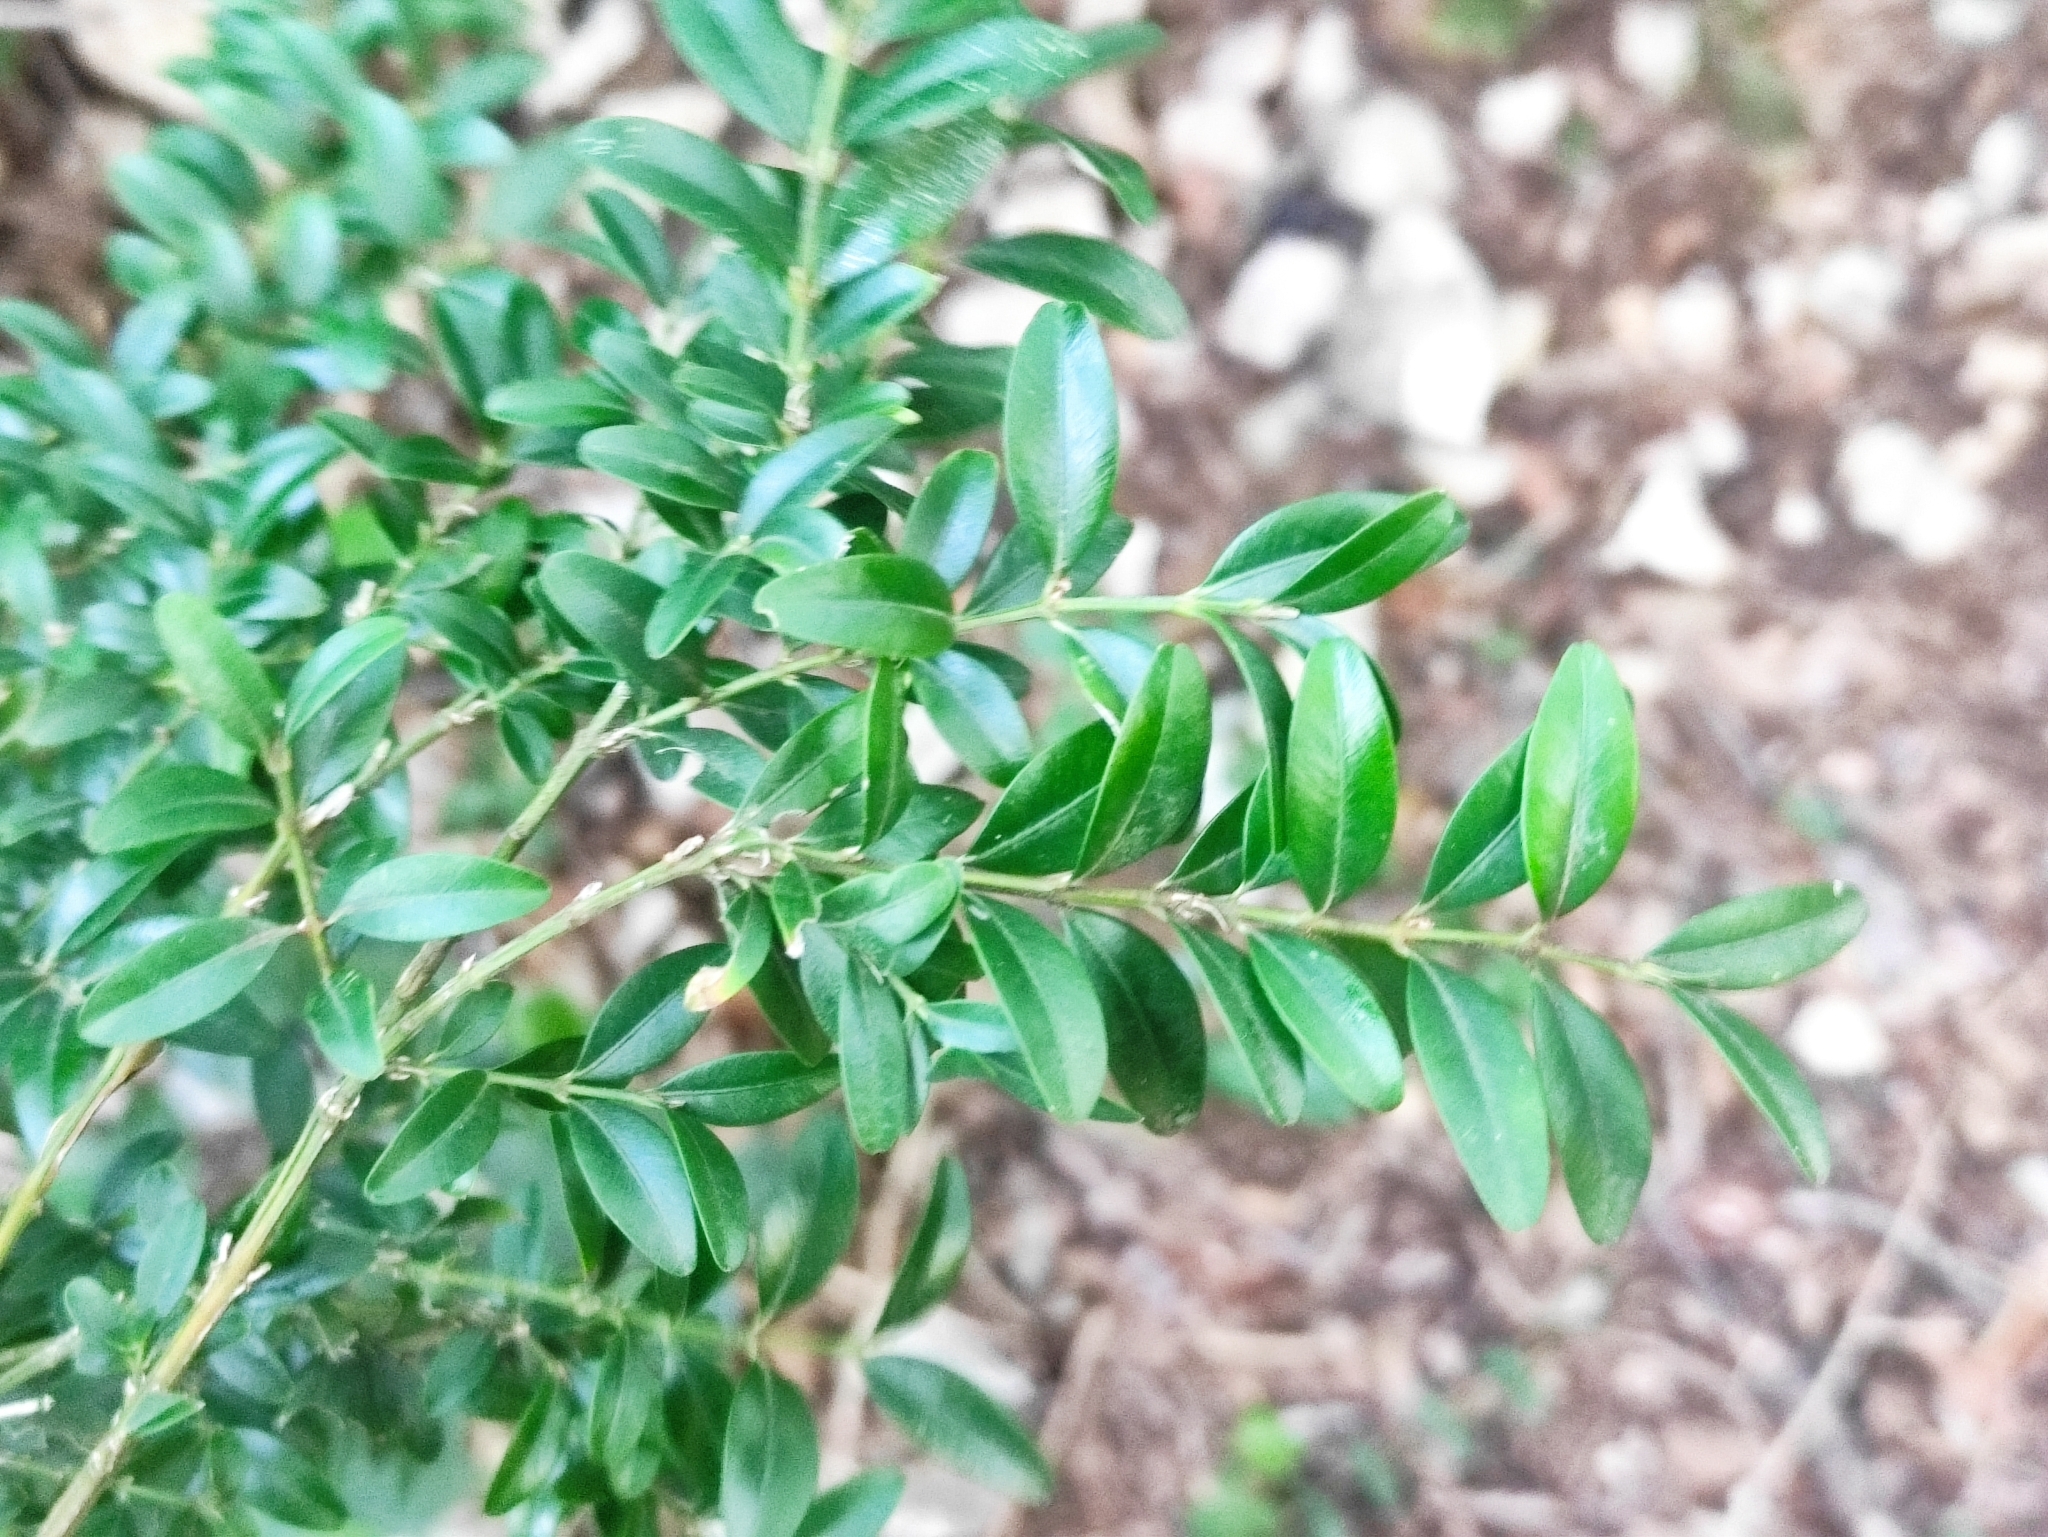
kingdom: Plantae
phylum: Tracheophyta
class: Magnoliopsida
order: Buxales
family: Buxaceae
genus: Buxus
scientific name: Buxus sempervirens
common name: Box
